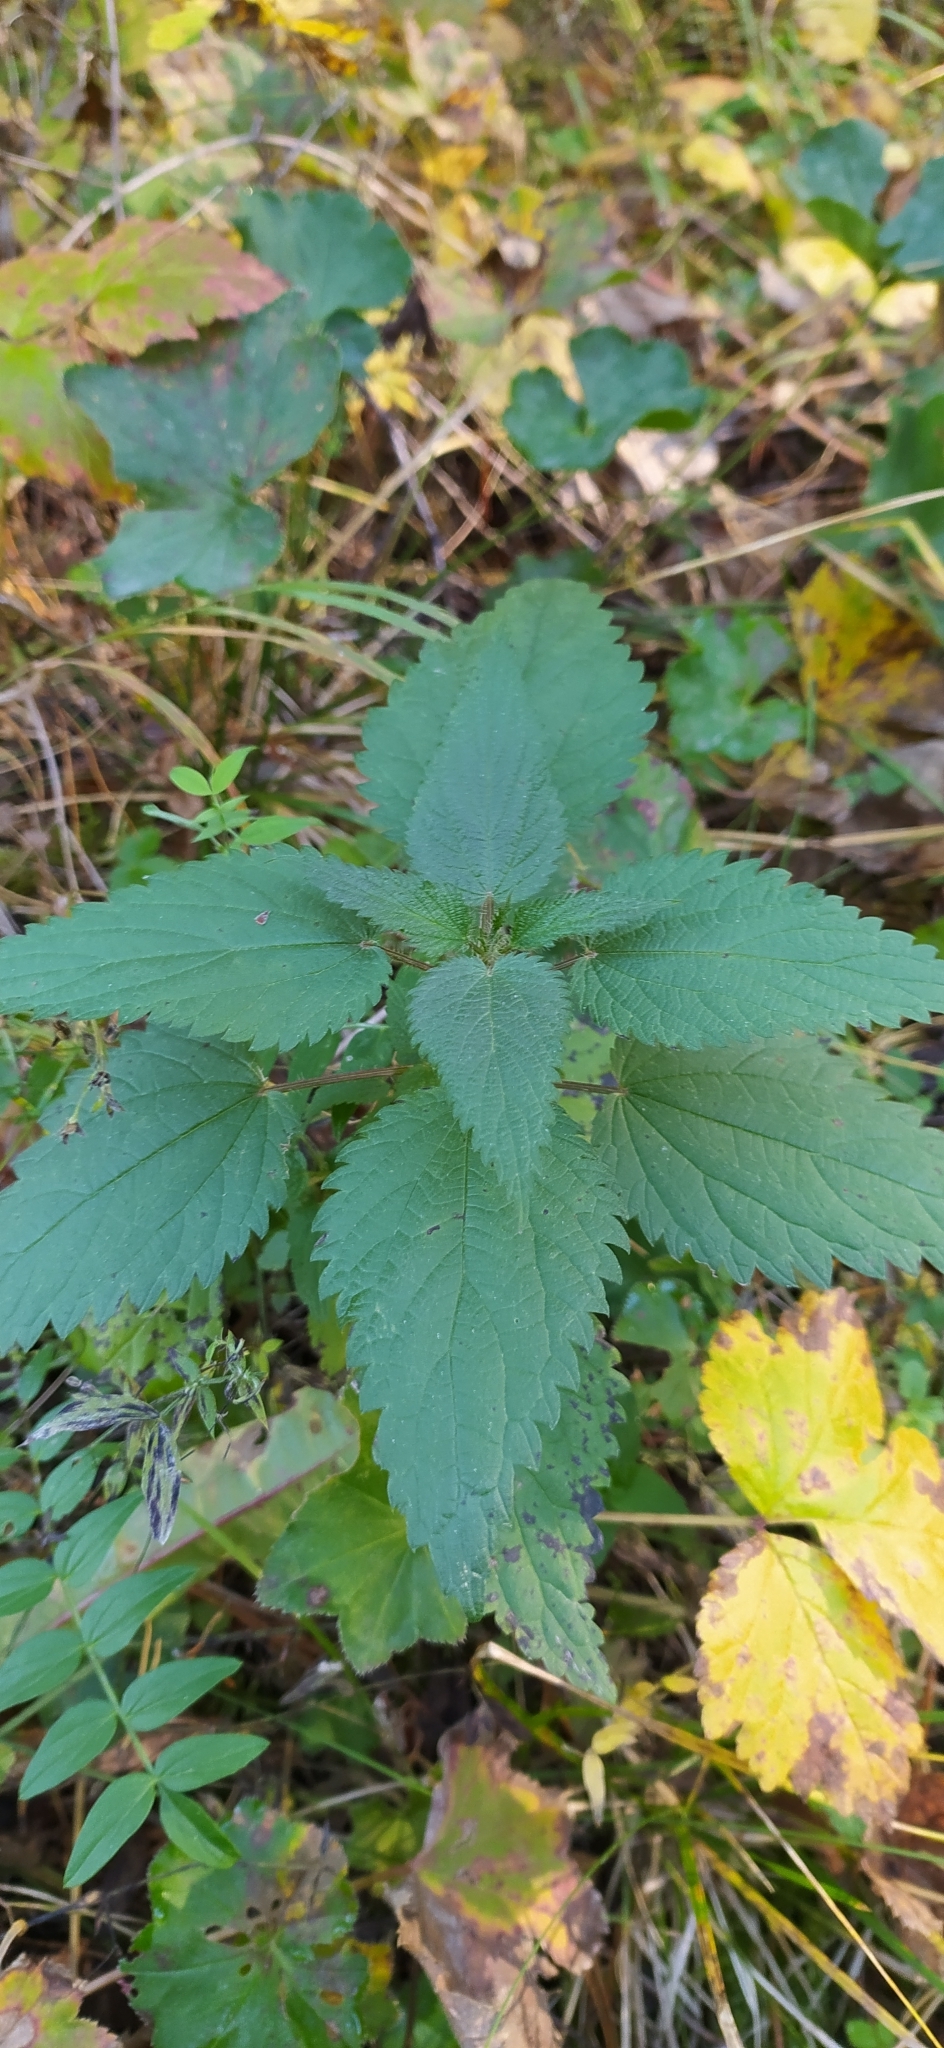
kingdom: Plantae
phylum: Tracheophyta
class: Magnoliopsida
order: Rosales
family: Urticaceae
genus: Urtica
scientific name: Urtica dioica
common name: Common nettle
